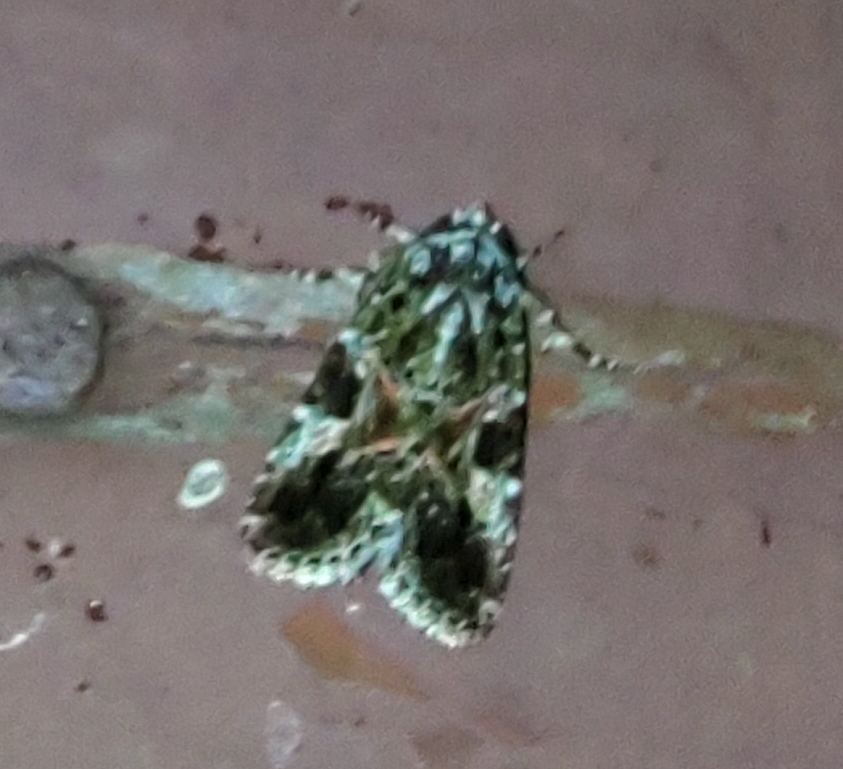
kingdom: Animalia
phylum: Arthropoda
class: Insecta
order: Lepidoptera
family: Noctuidae
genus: Elaphria
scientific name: Elaphria pulchra
